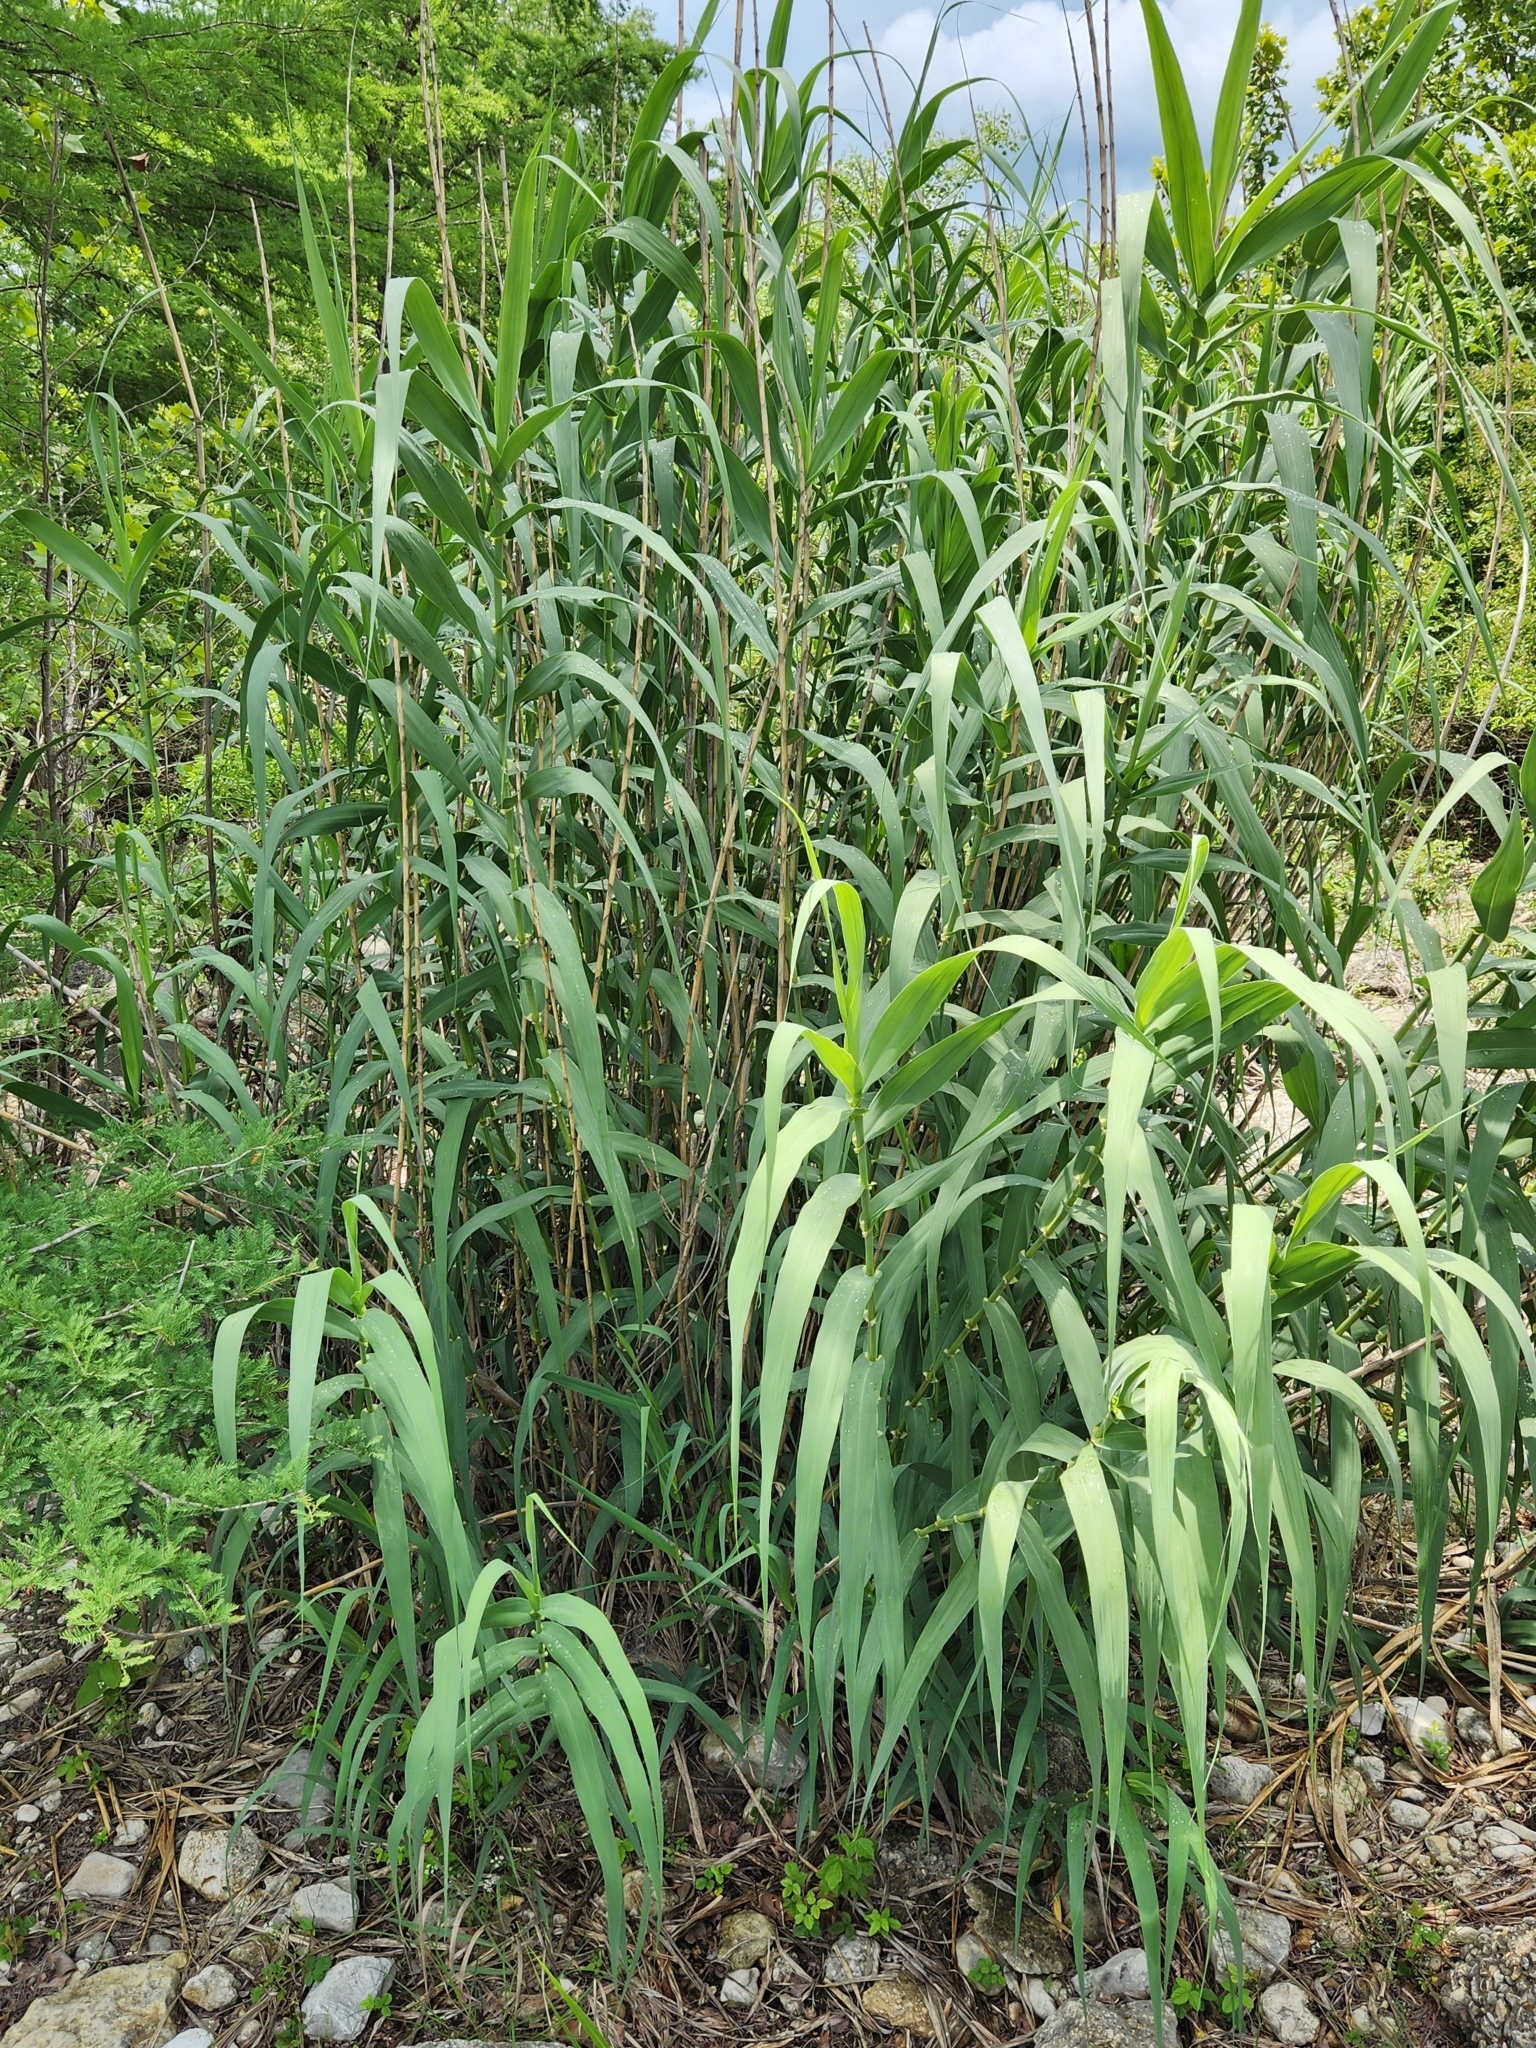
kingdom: Plantae
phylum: Tracheophyta
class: Liliopsida
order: Poales
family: Poaceae
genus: Arundo
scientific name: Arundo donax
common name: Giant reed
